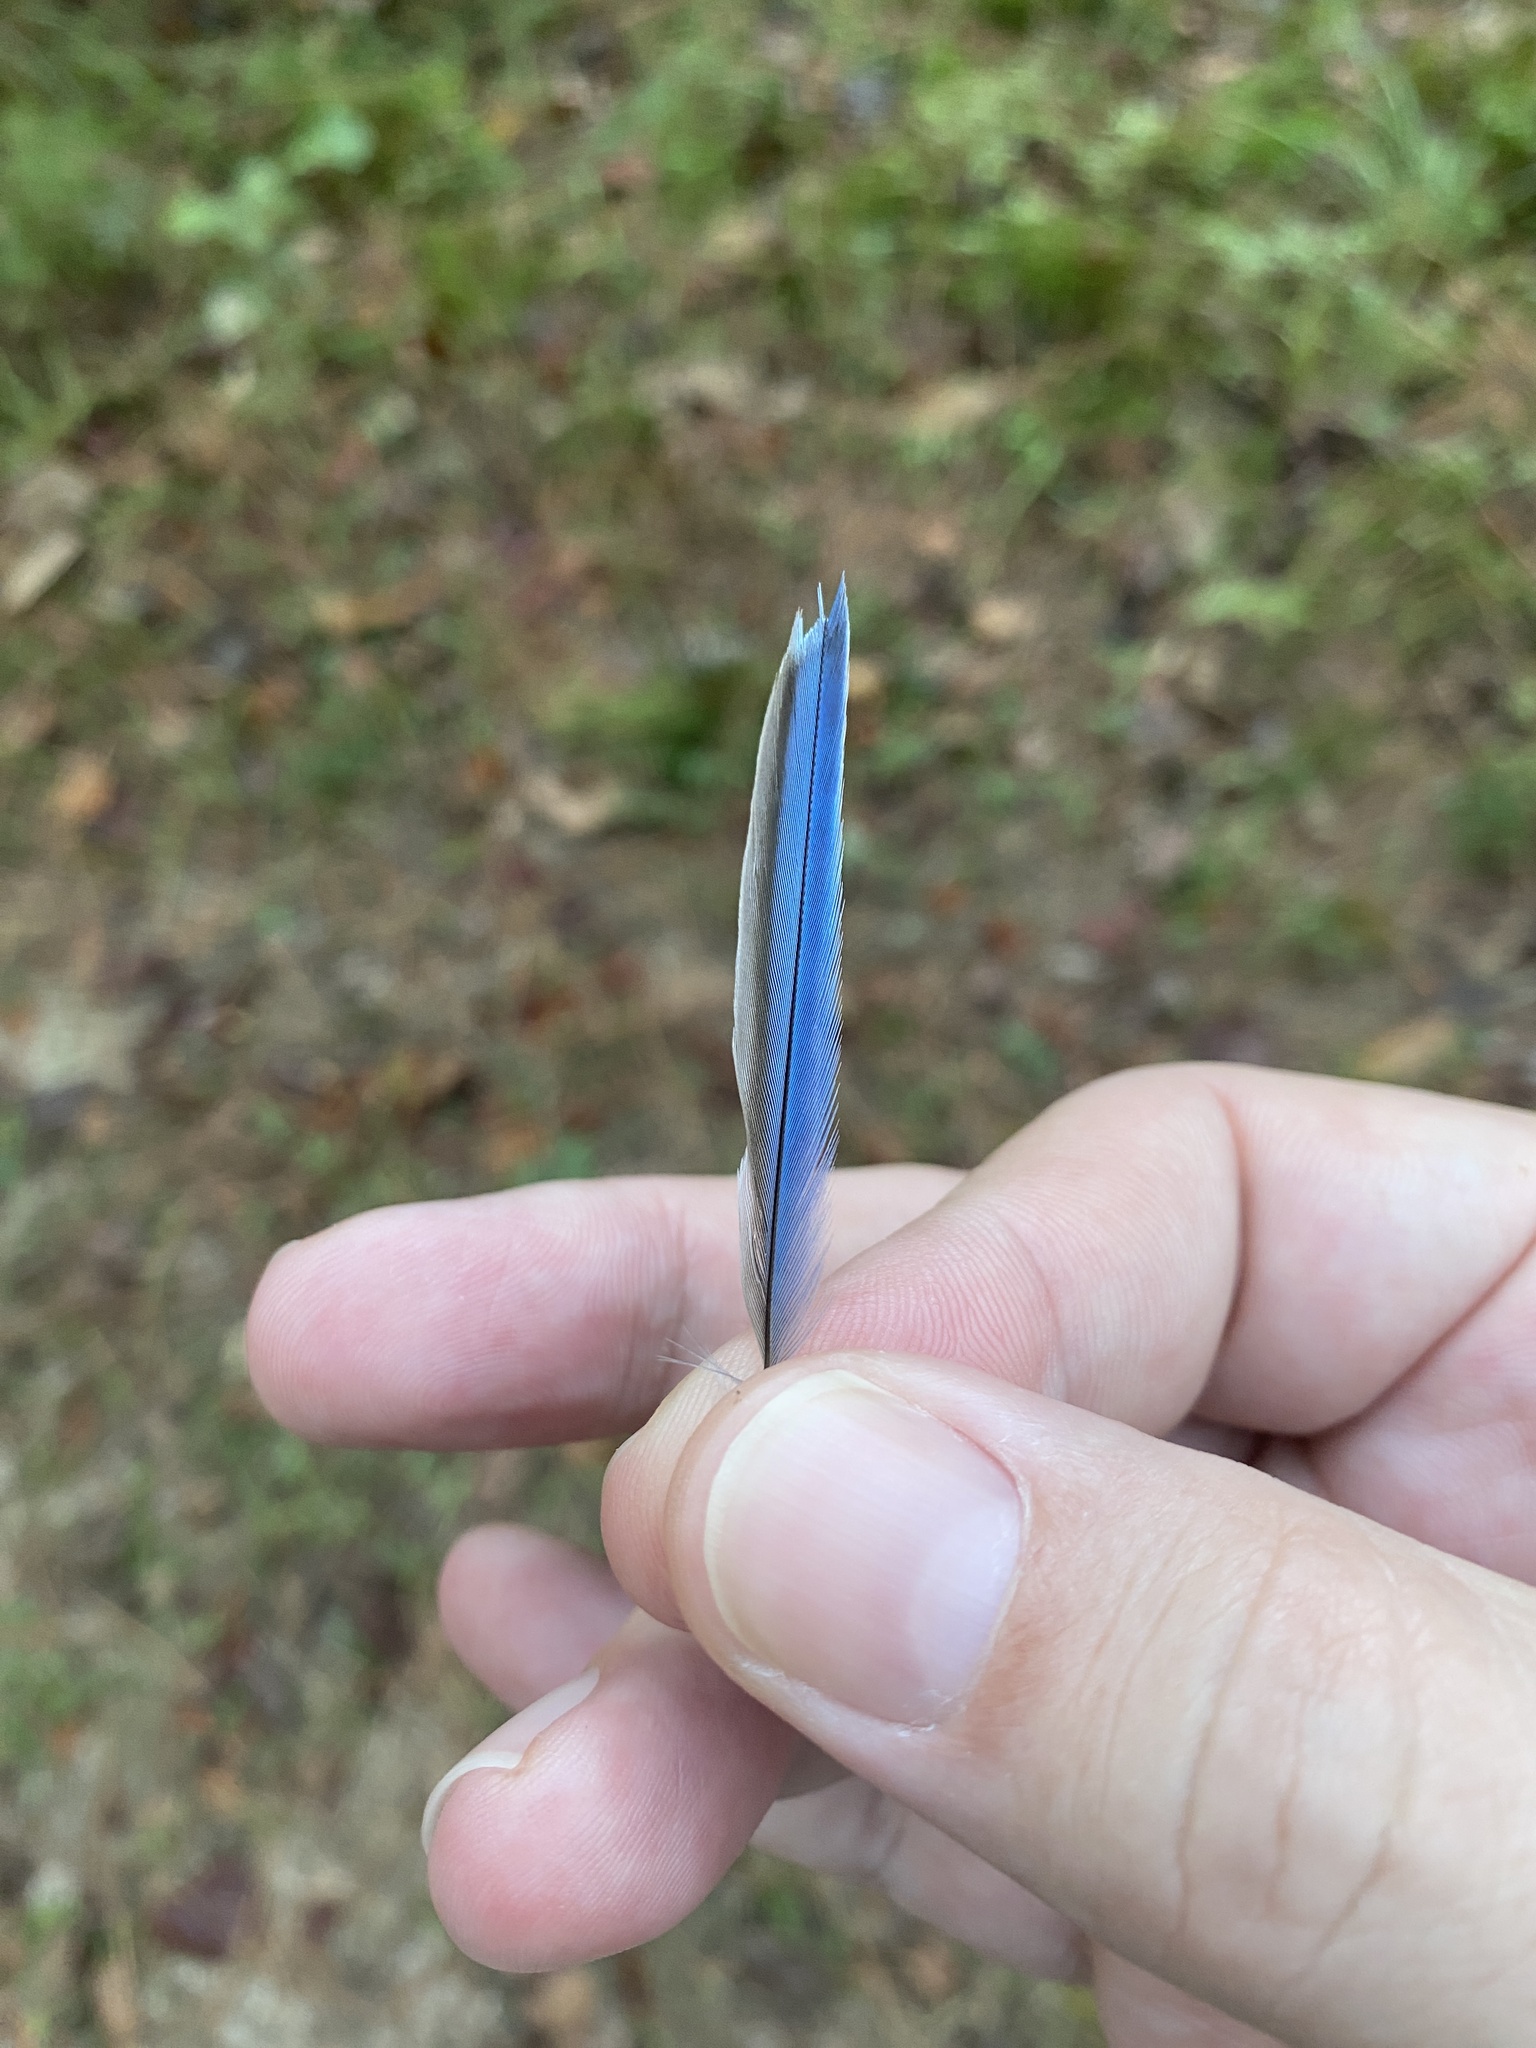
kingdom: Animalia
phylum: Chordata
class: Aves
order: Passeriformes
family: Turdidae
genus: Sialia
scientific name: Sialia sialis
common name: Eastern bluebird
